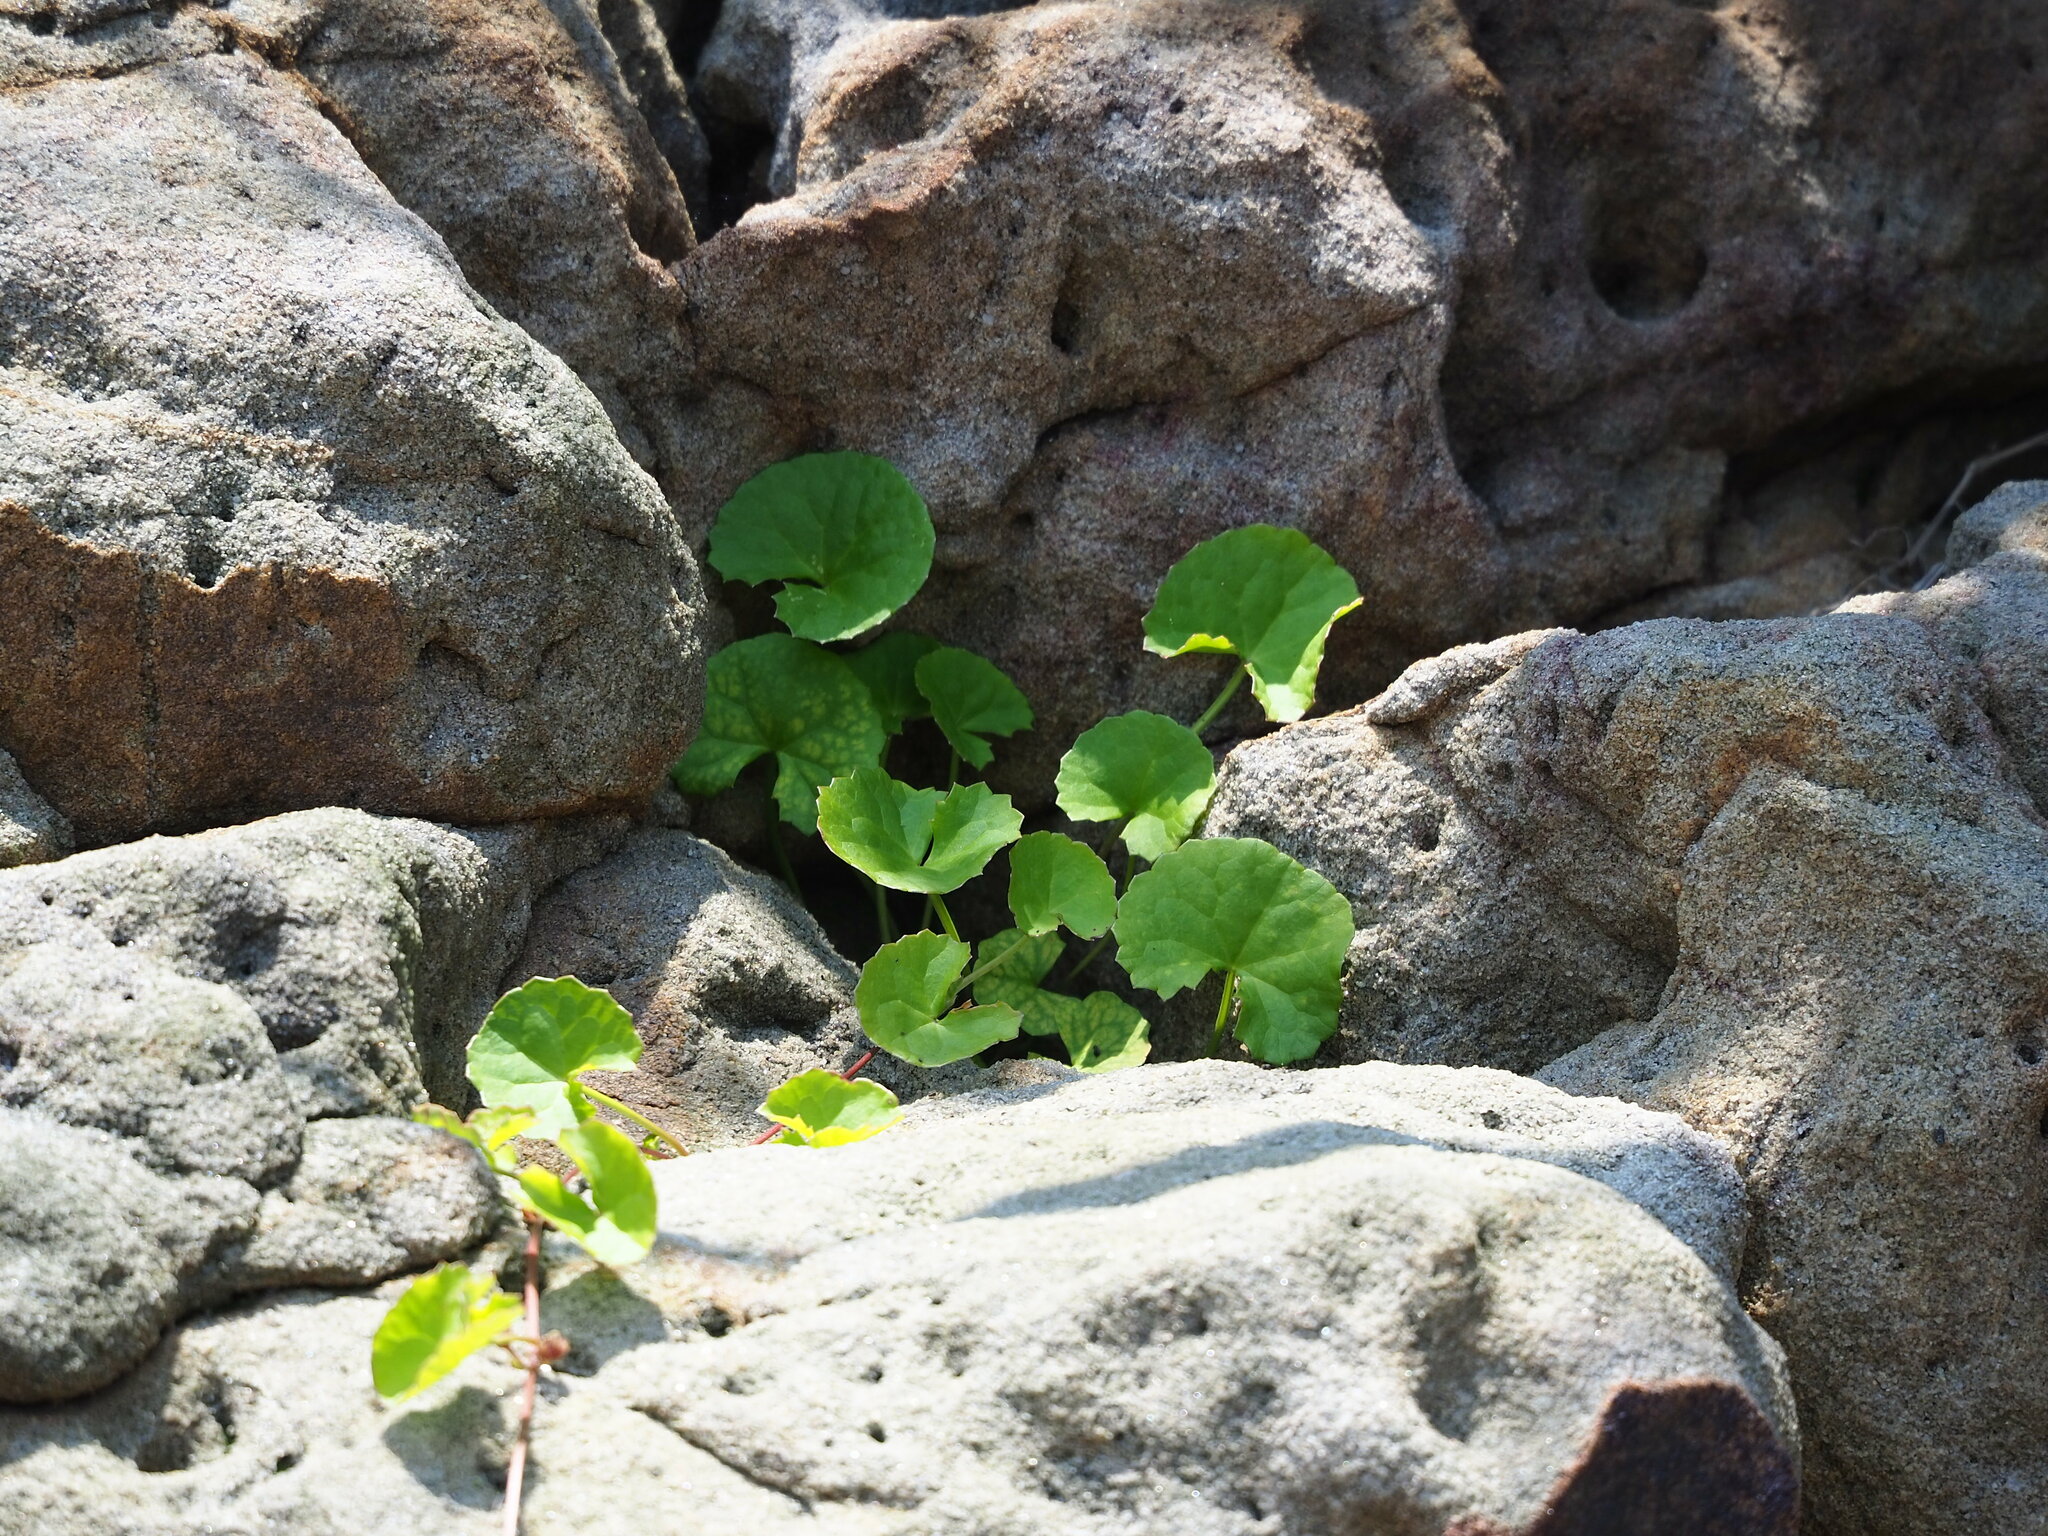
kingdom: Plantae
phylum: Tracheophyta
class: Magnoliopsida
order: Apiales
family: Apiaceae
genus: Centella
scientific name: Centella asiatica
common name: Spadeleaf
